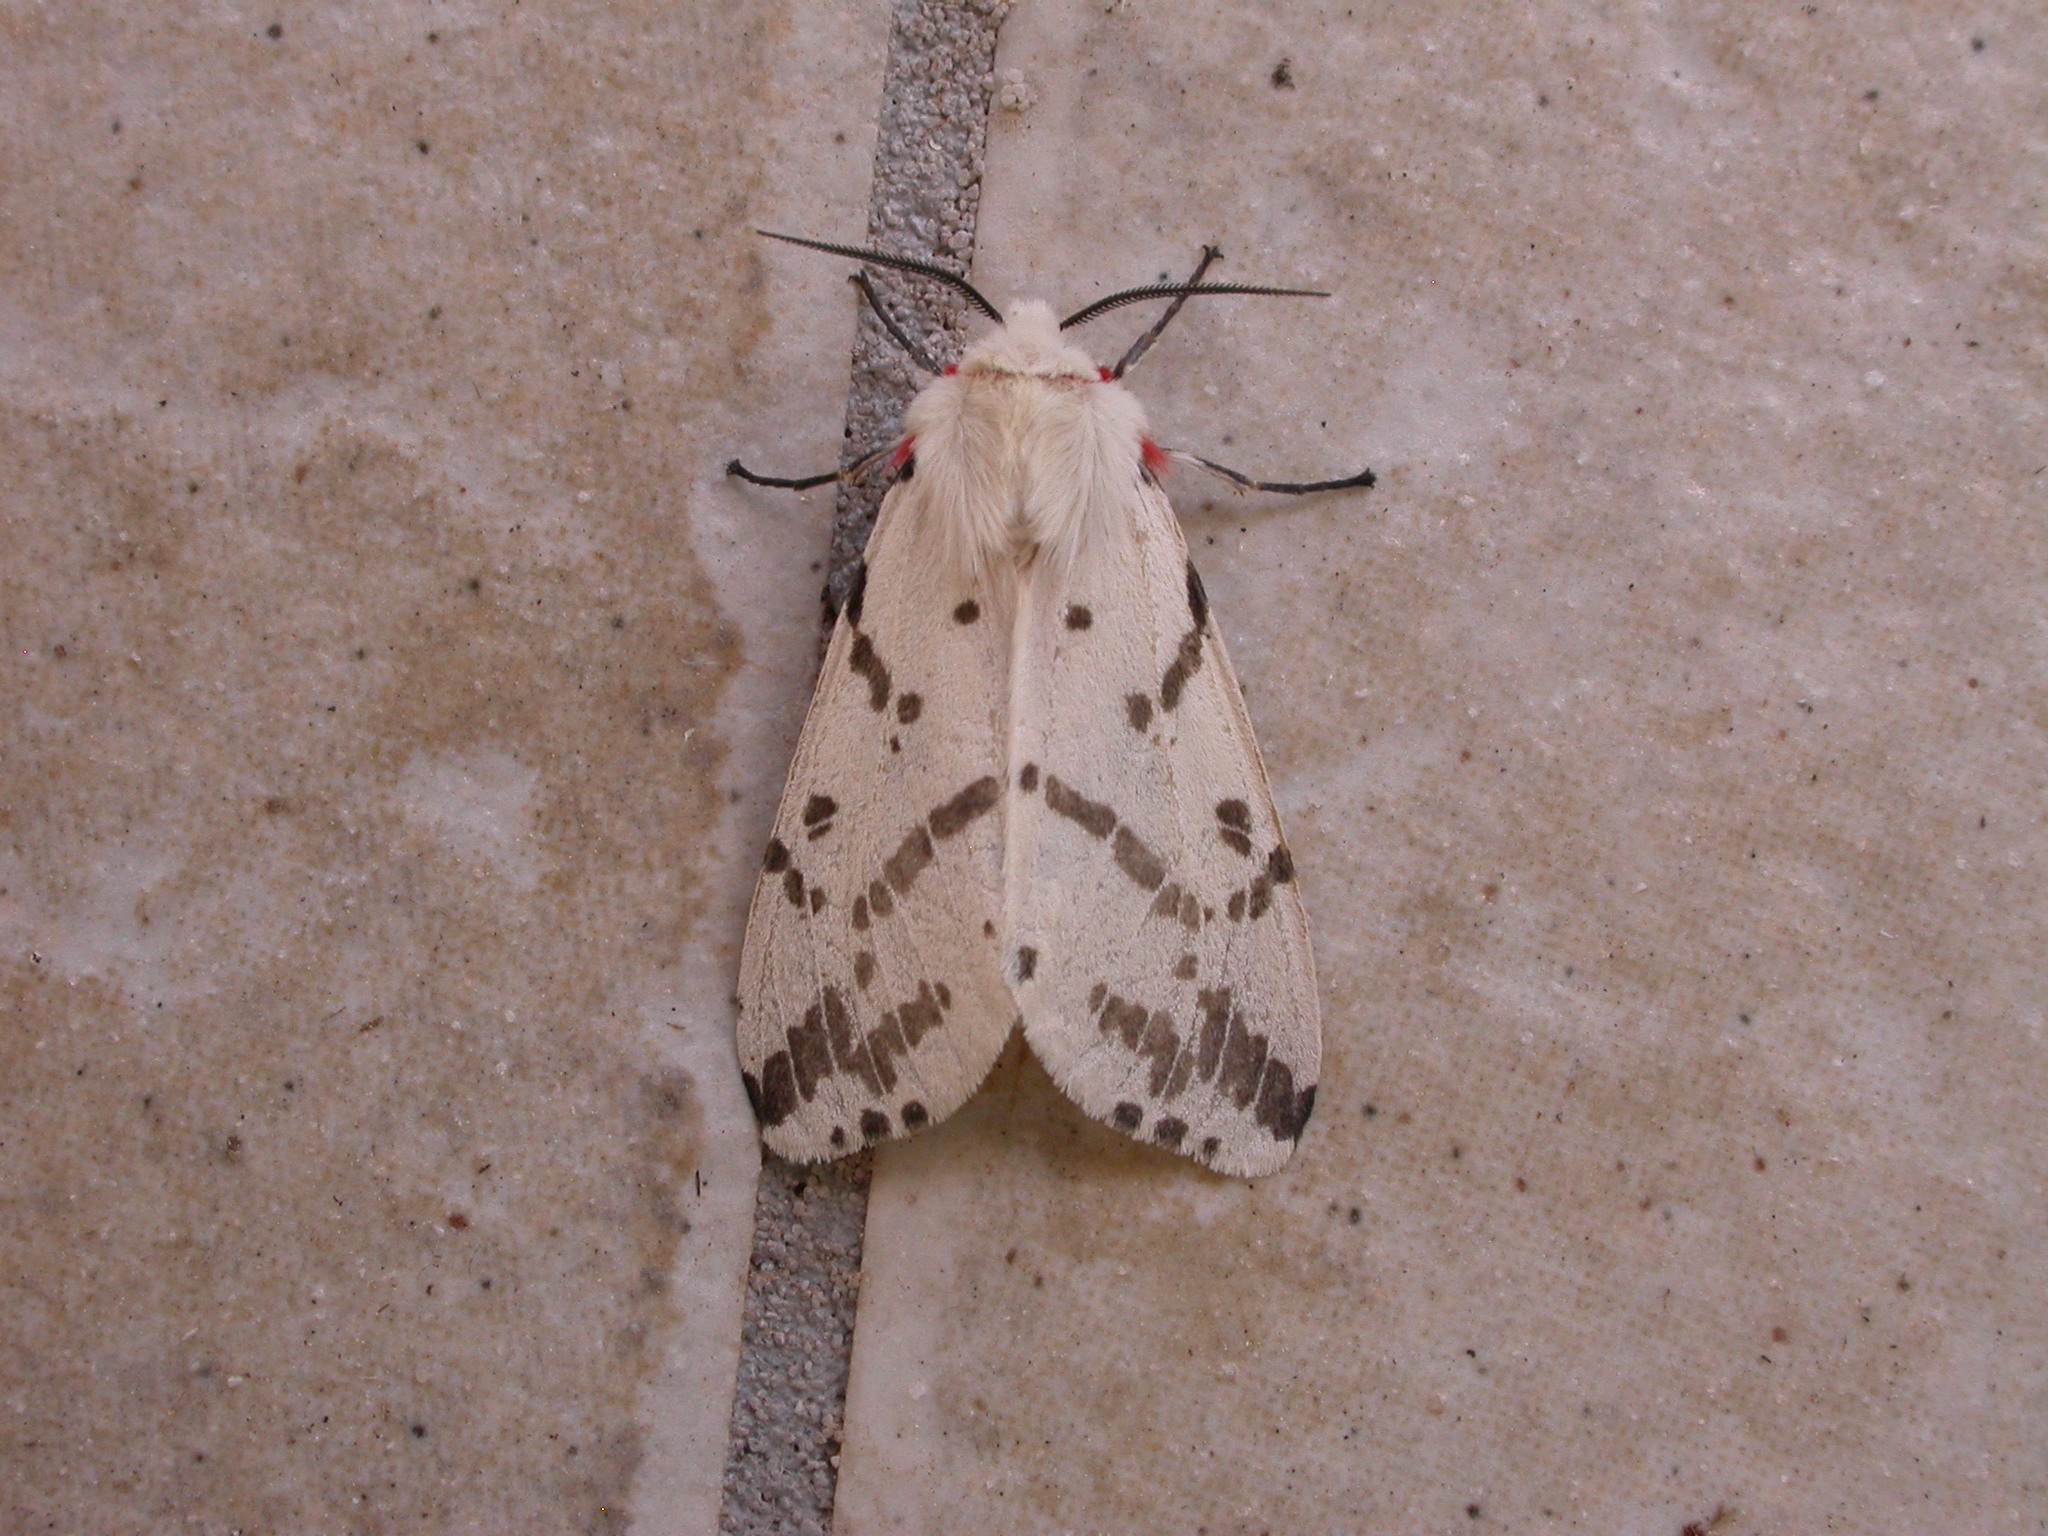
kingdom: Animalia
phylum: Arthropoda
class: Insecta
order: Lepidoptera
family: Erebidae
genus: Ardices
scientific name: Ardices canescens
